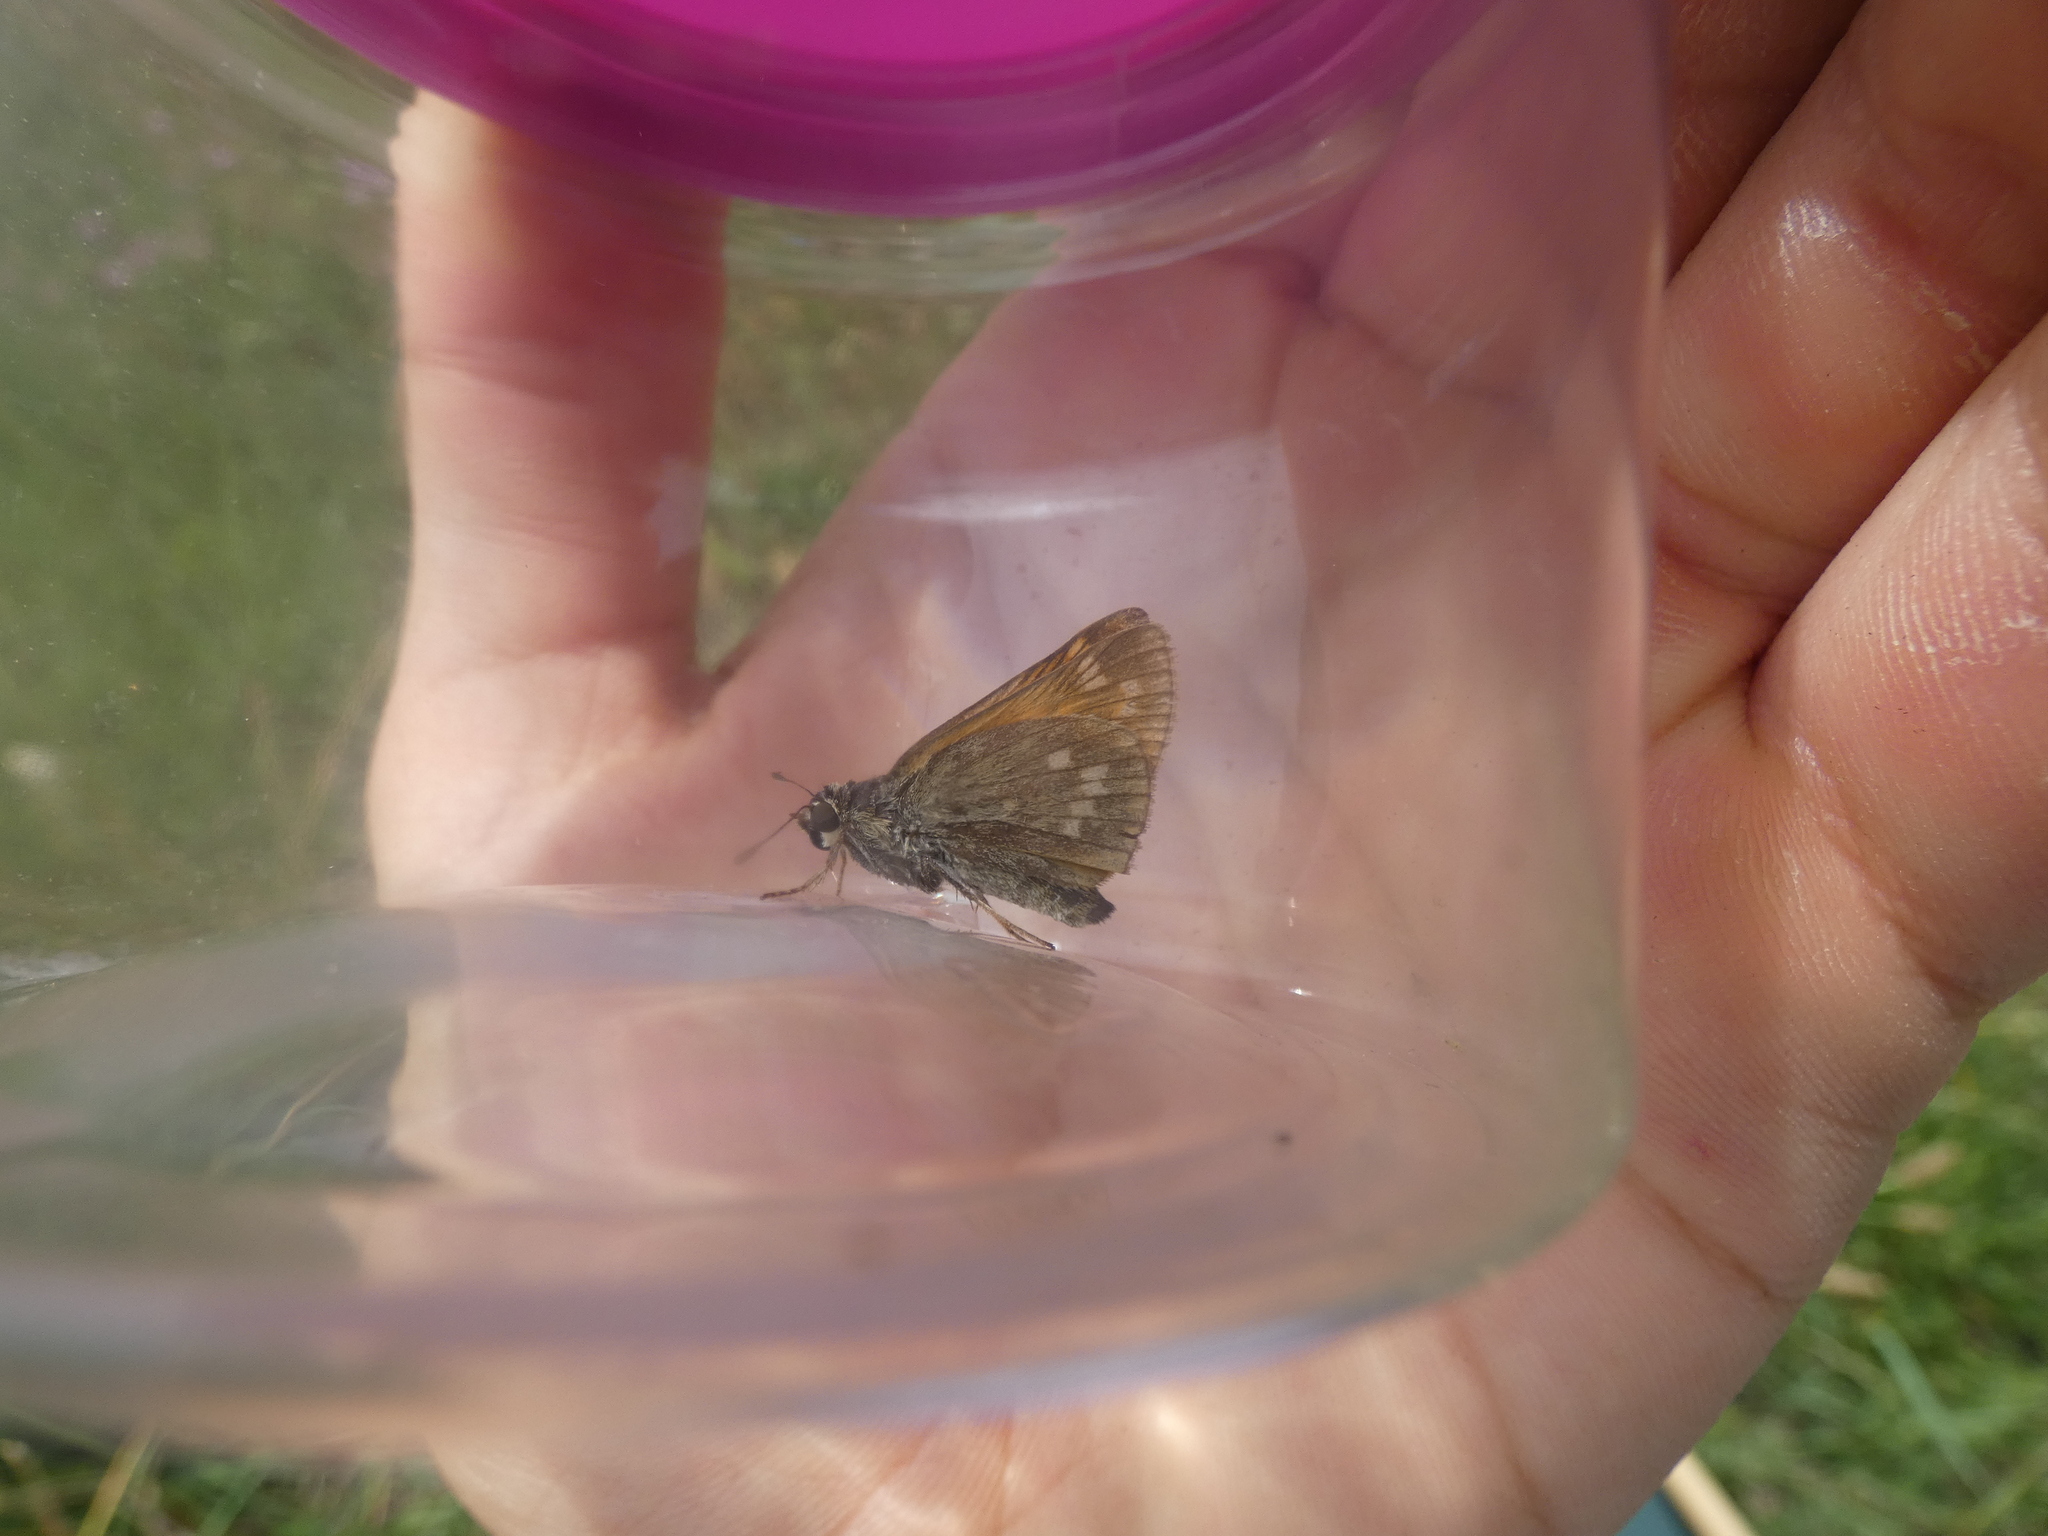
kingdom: Animalia
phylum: Arthropoda
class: Insecta
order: Lepidoptera
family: Hesperiidae
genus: Ochlodes
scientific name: Ochlodes venata
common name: Large skipper
